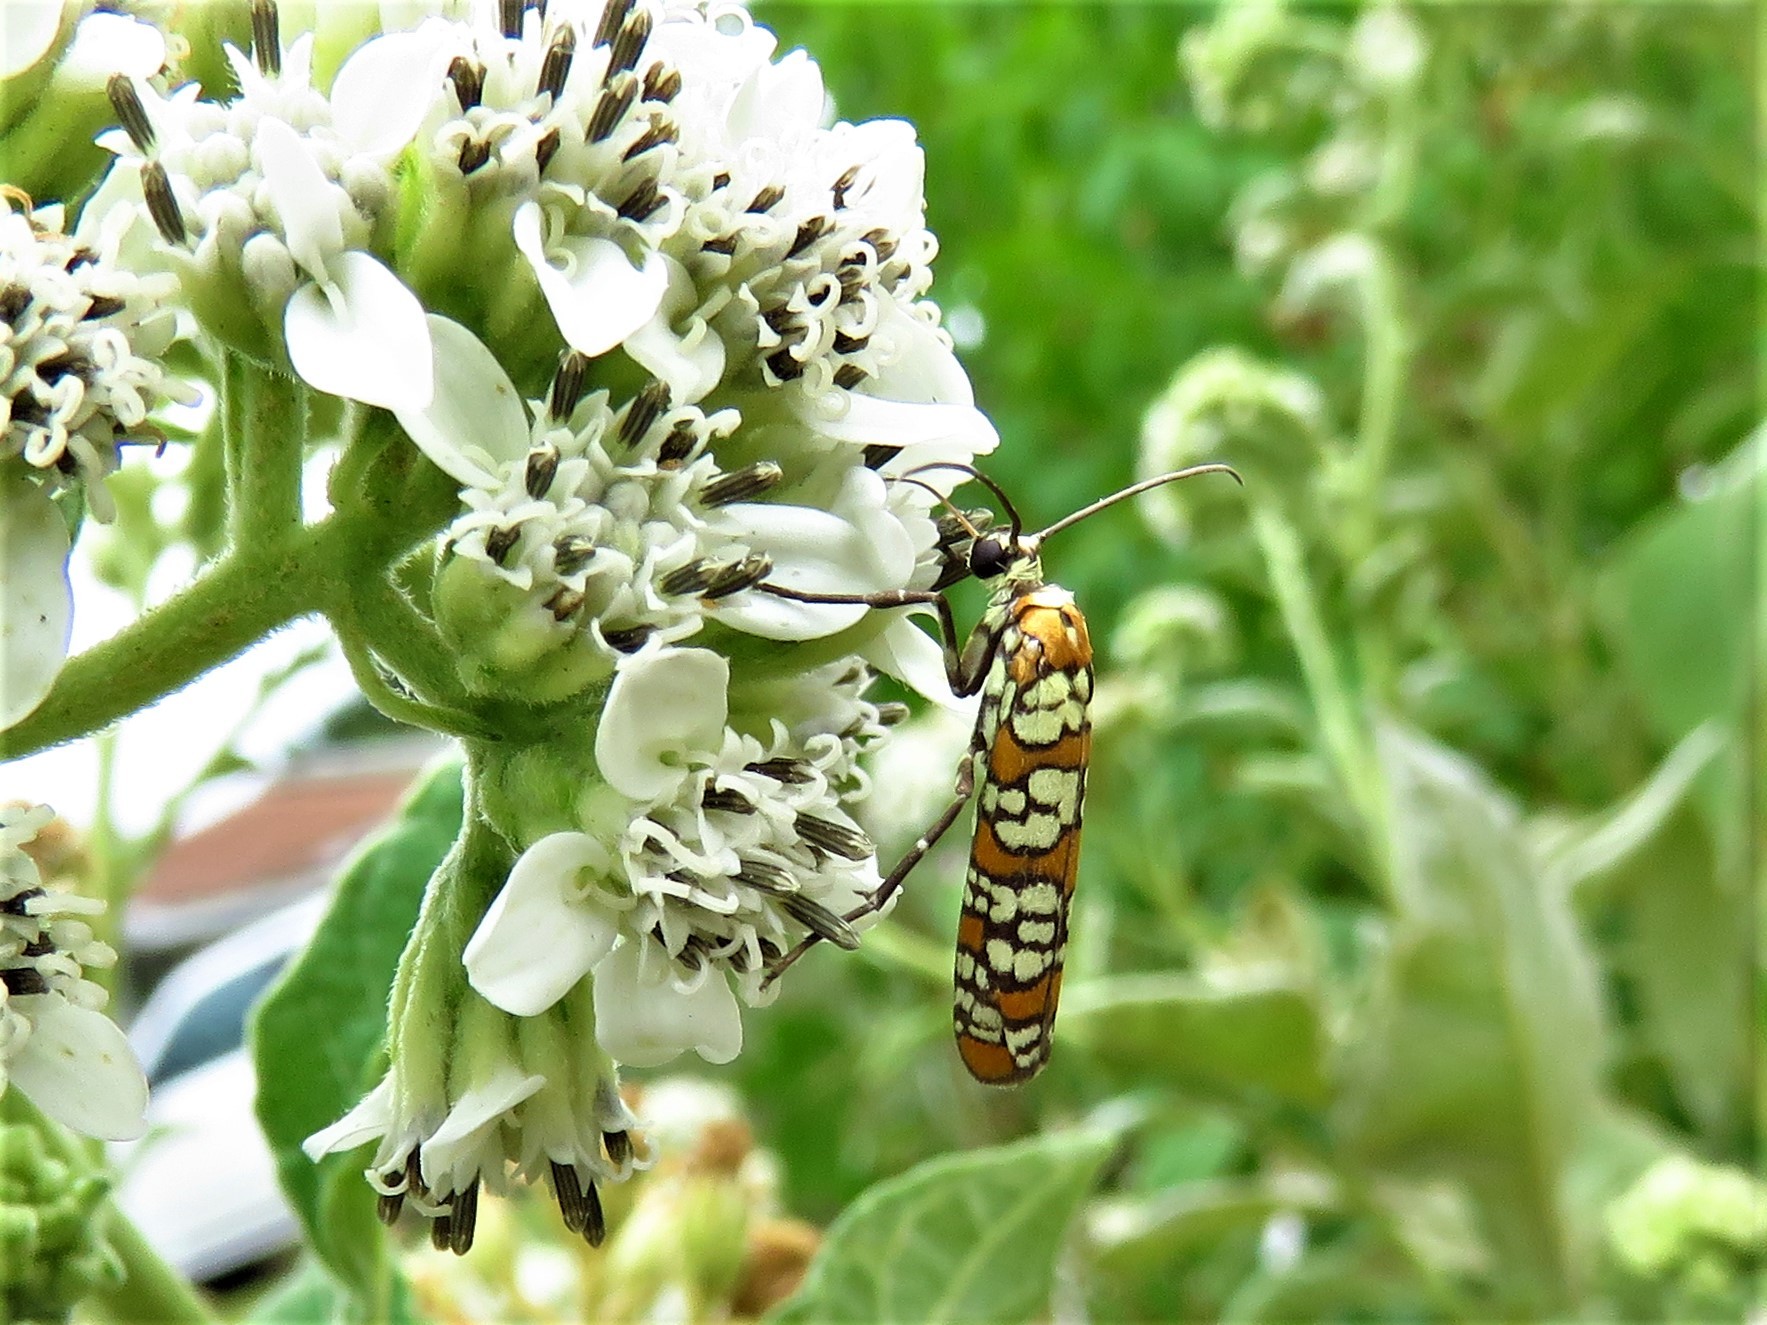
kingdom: Animalia
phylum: Arthropoda
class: Insecta
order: Lepidoptera
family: Attevidae
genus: Atteva
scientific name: Atteva punctella
